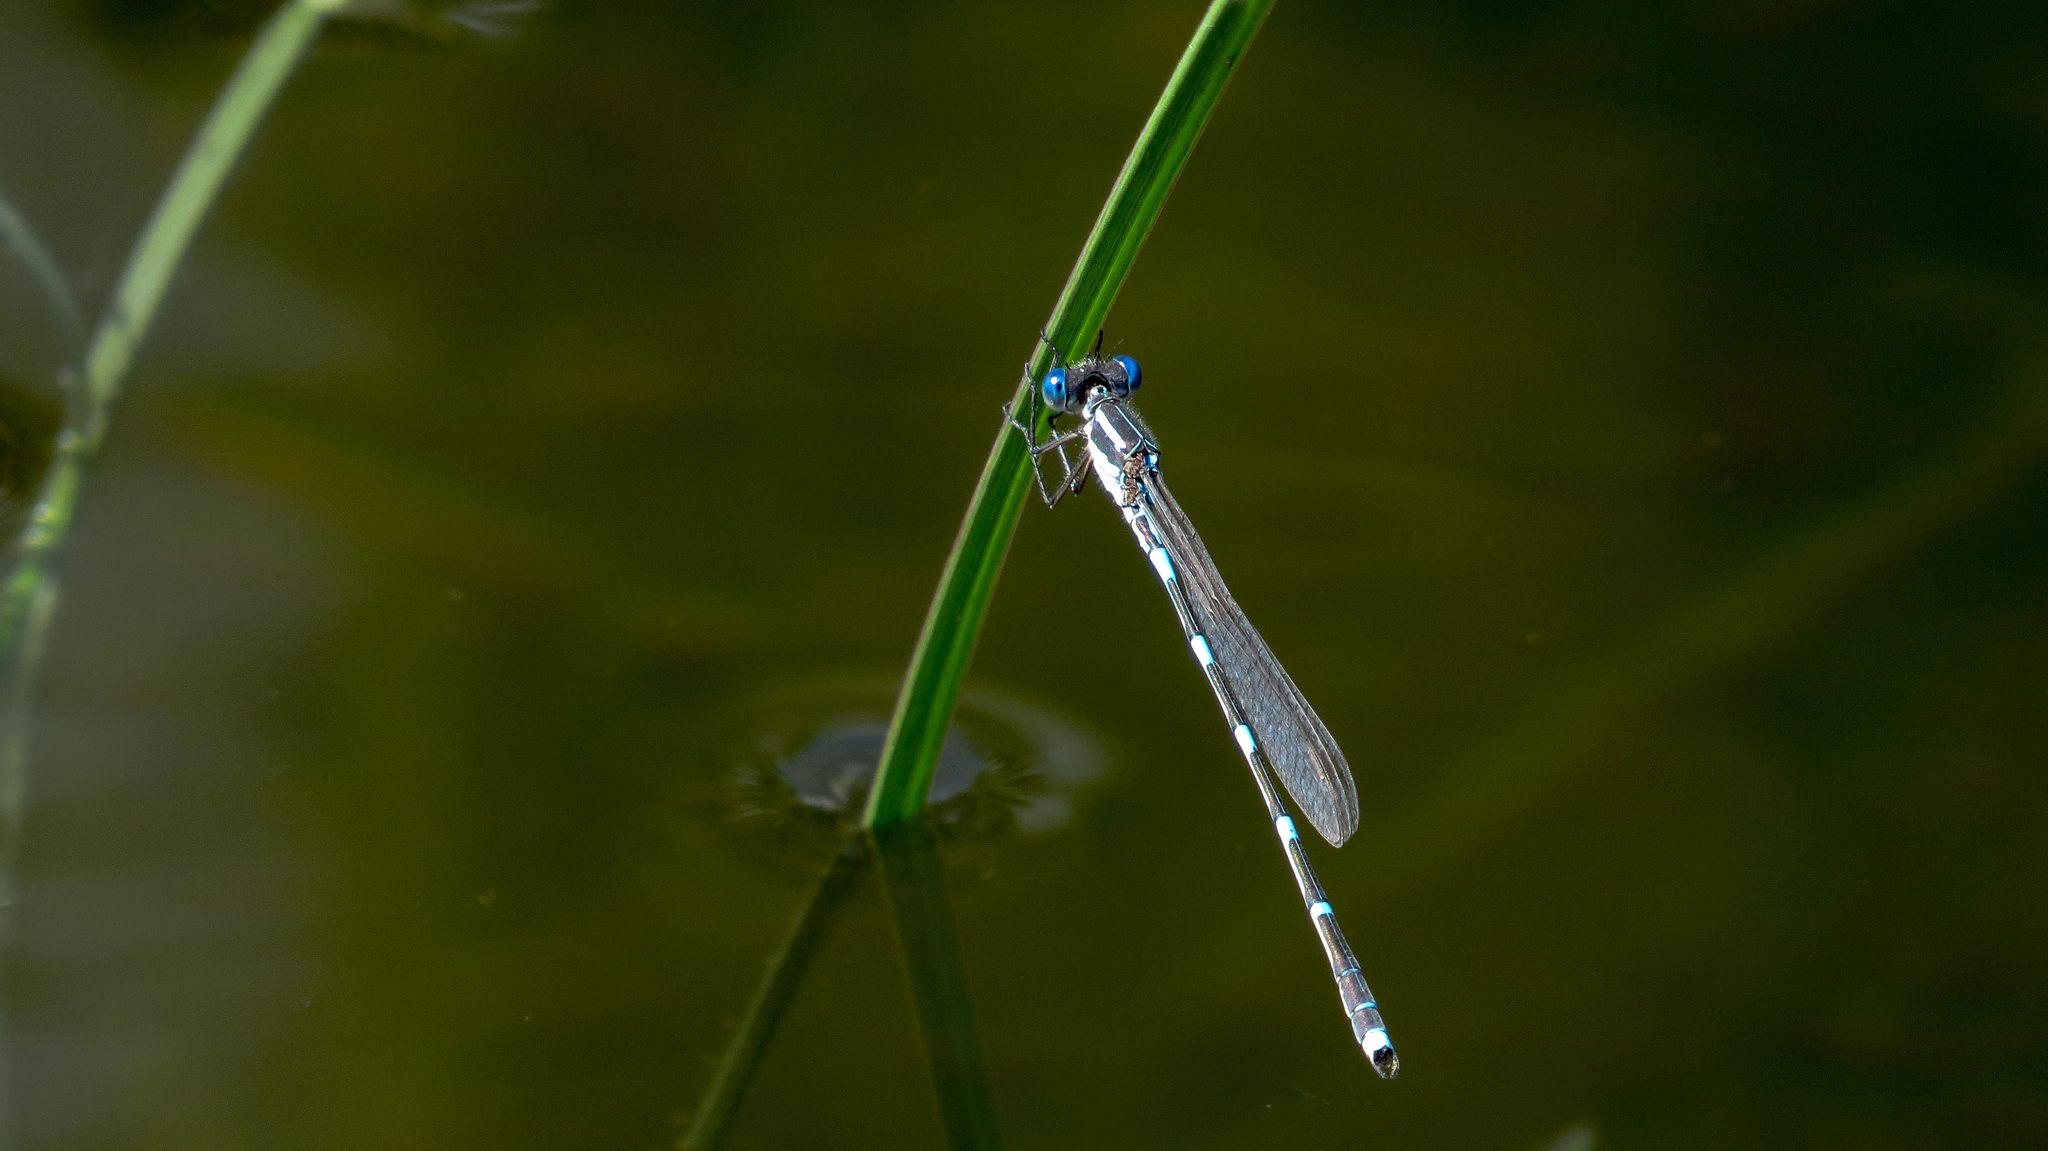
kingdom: Animalia
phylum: Arthropoda
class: Insecta
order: Odonata
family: Lestidae
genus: Austrolestes
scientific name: Austrolestes leda
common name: Wandering ringtail
